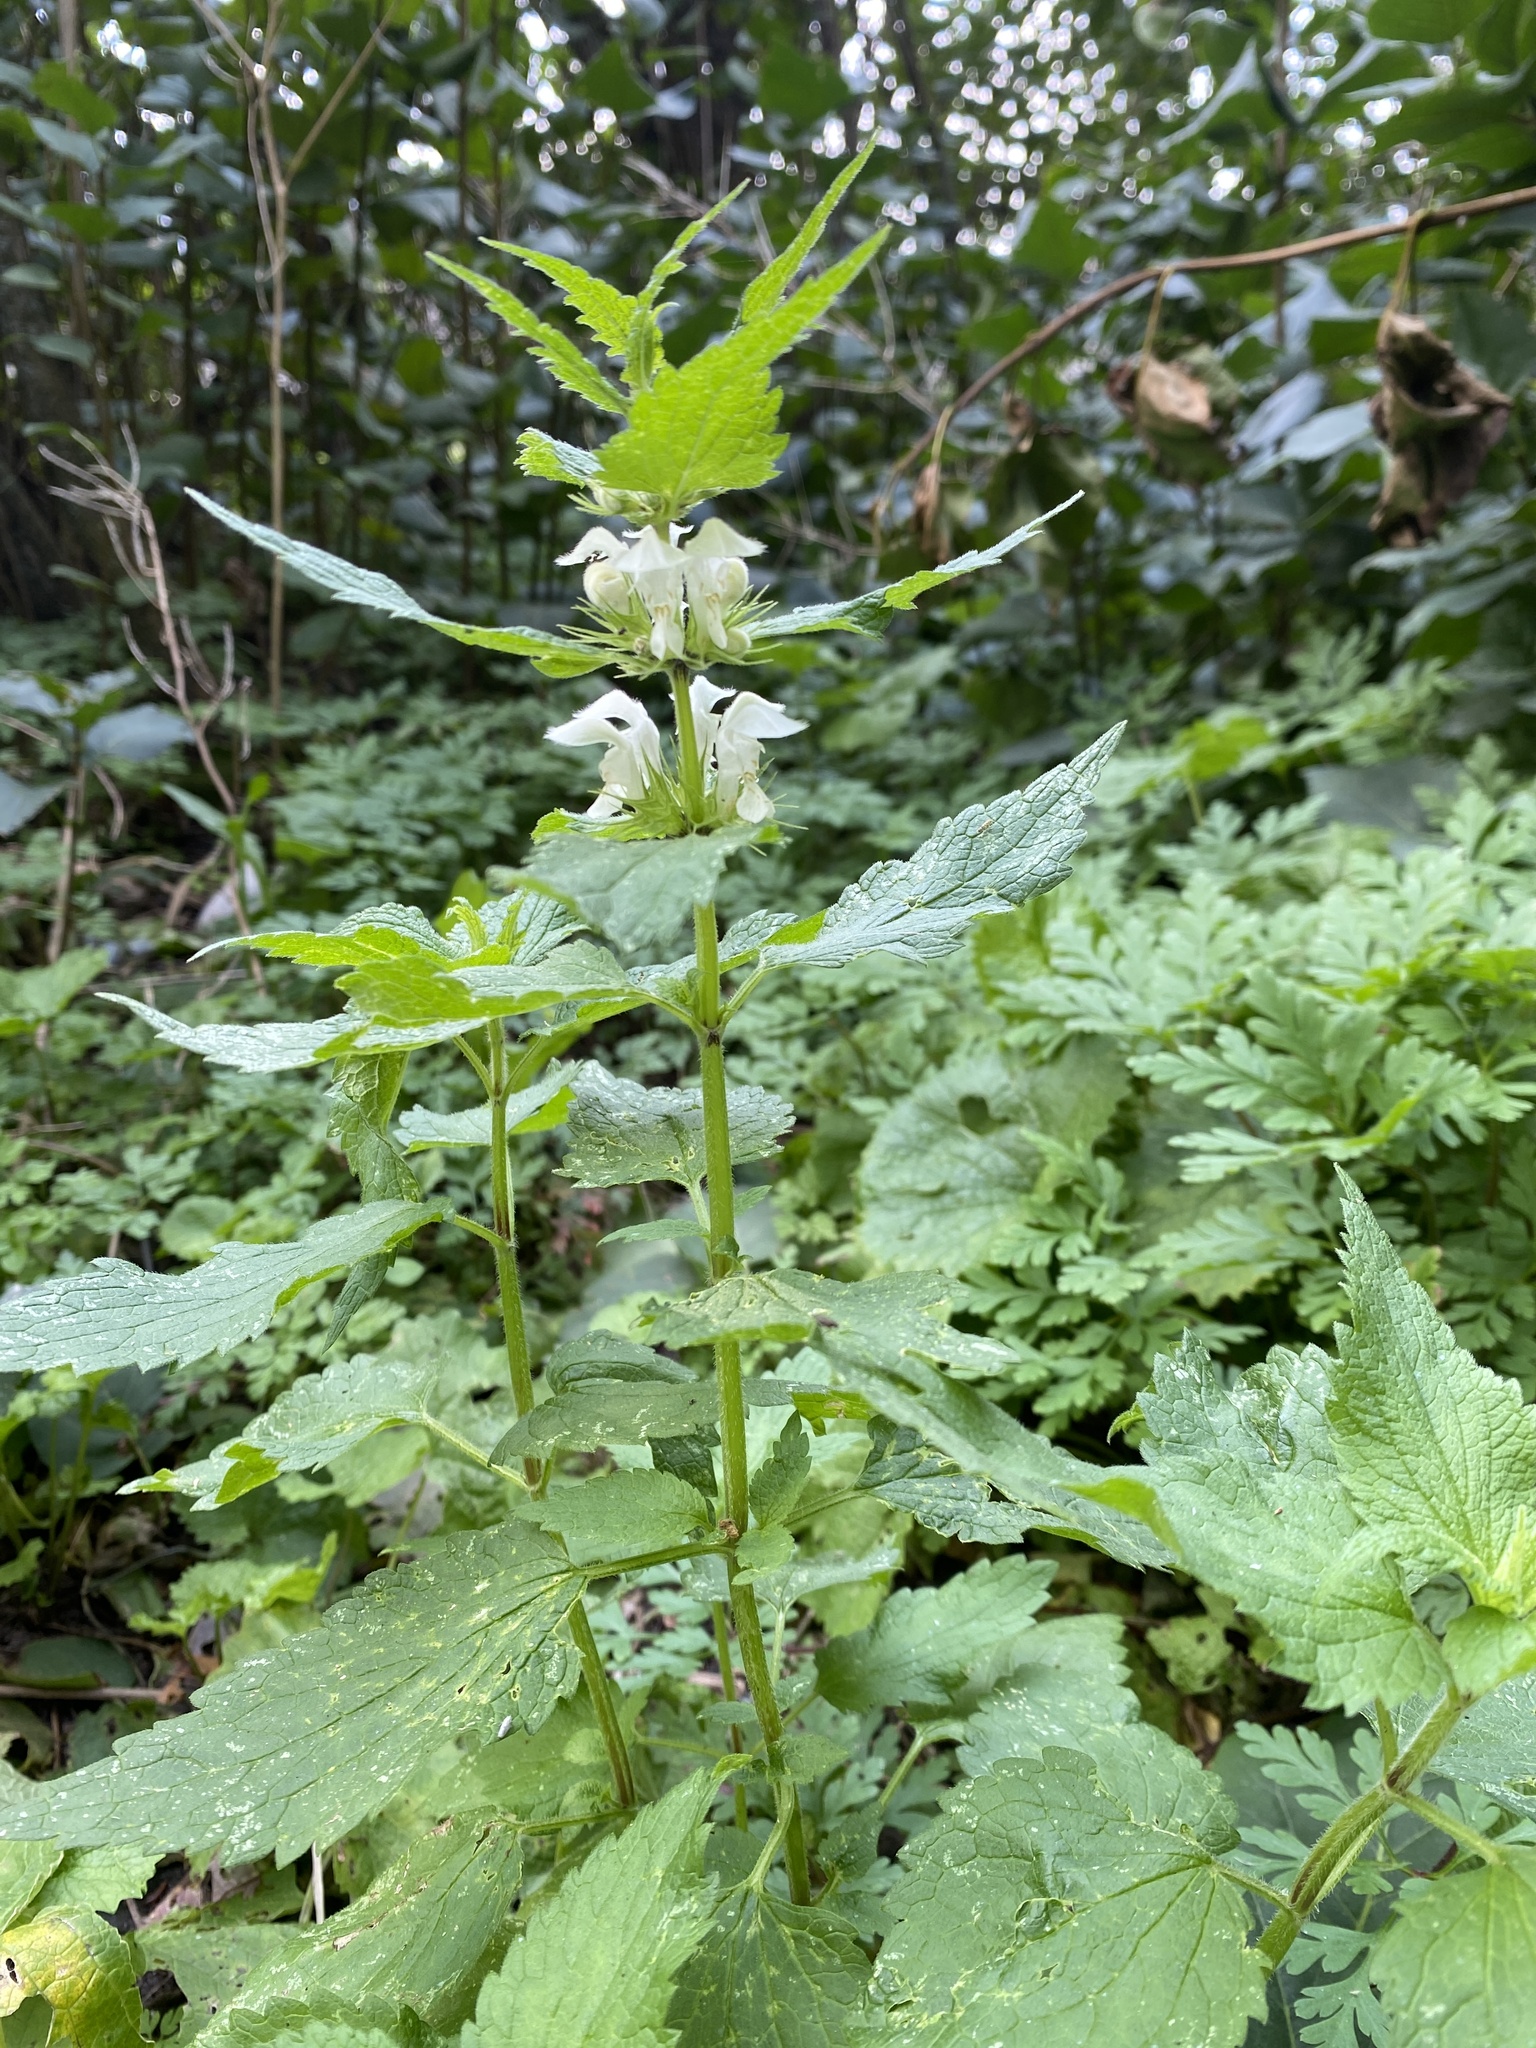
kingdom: Plantae
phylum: Tracheophyta
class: Magnoliopsida
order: Lamiales
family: Lamiaceae
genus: Lamium
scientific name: Lamium album
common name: White dead-nettle
